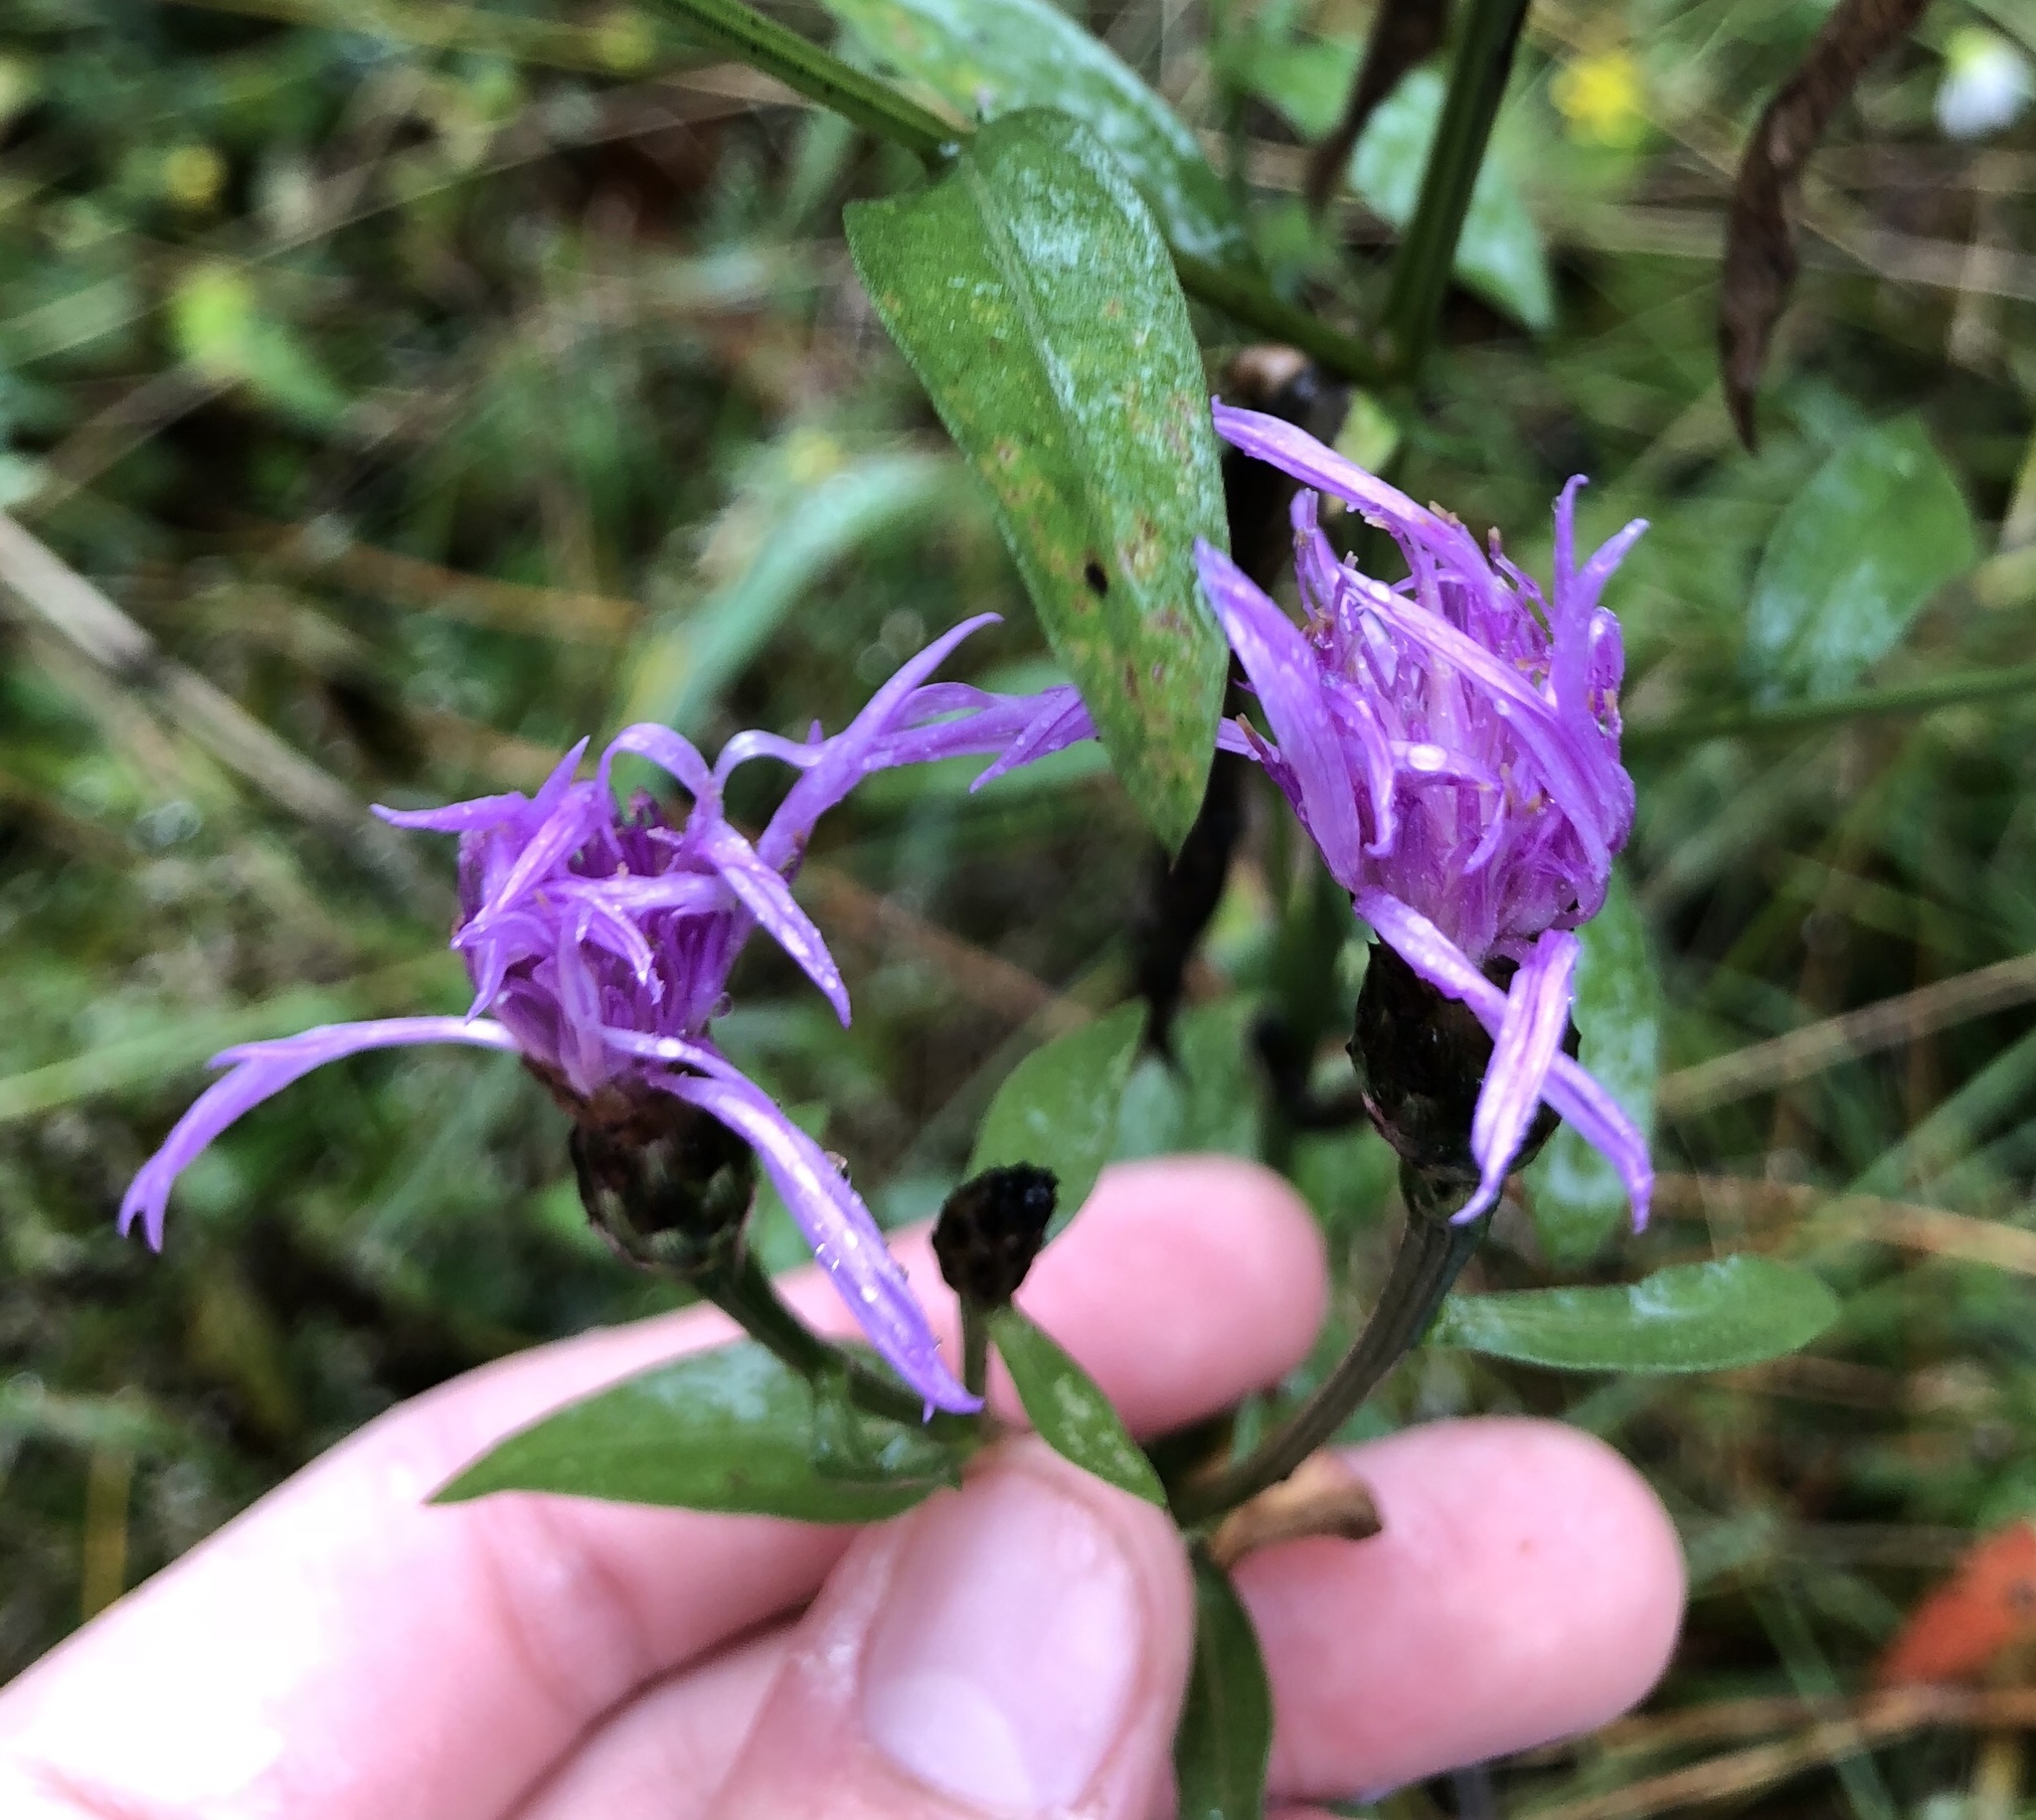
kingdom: Plantae
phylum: Tracheophyta
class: Magnoliopsida
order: Asterales
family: Asteraceae
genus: Centaurea
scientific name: Centaurea moncktonii
